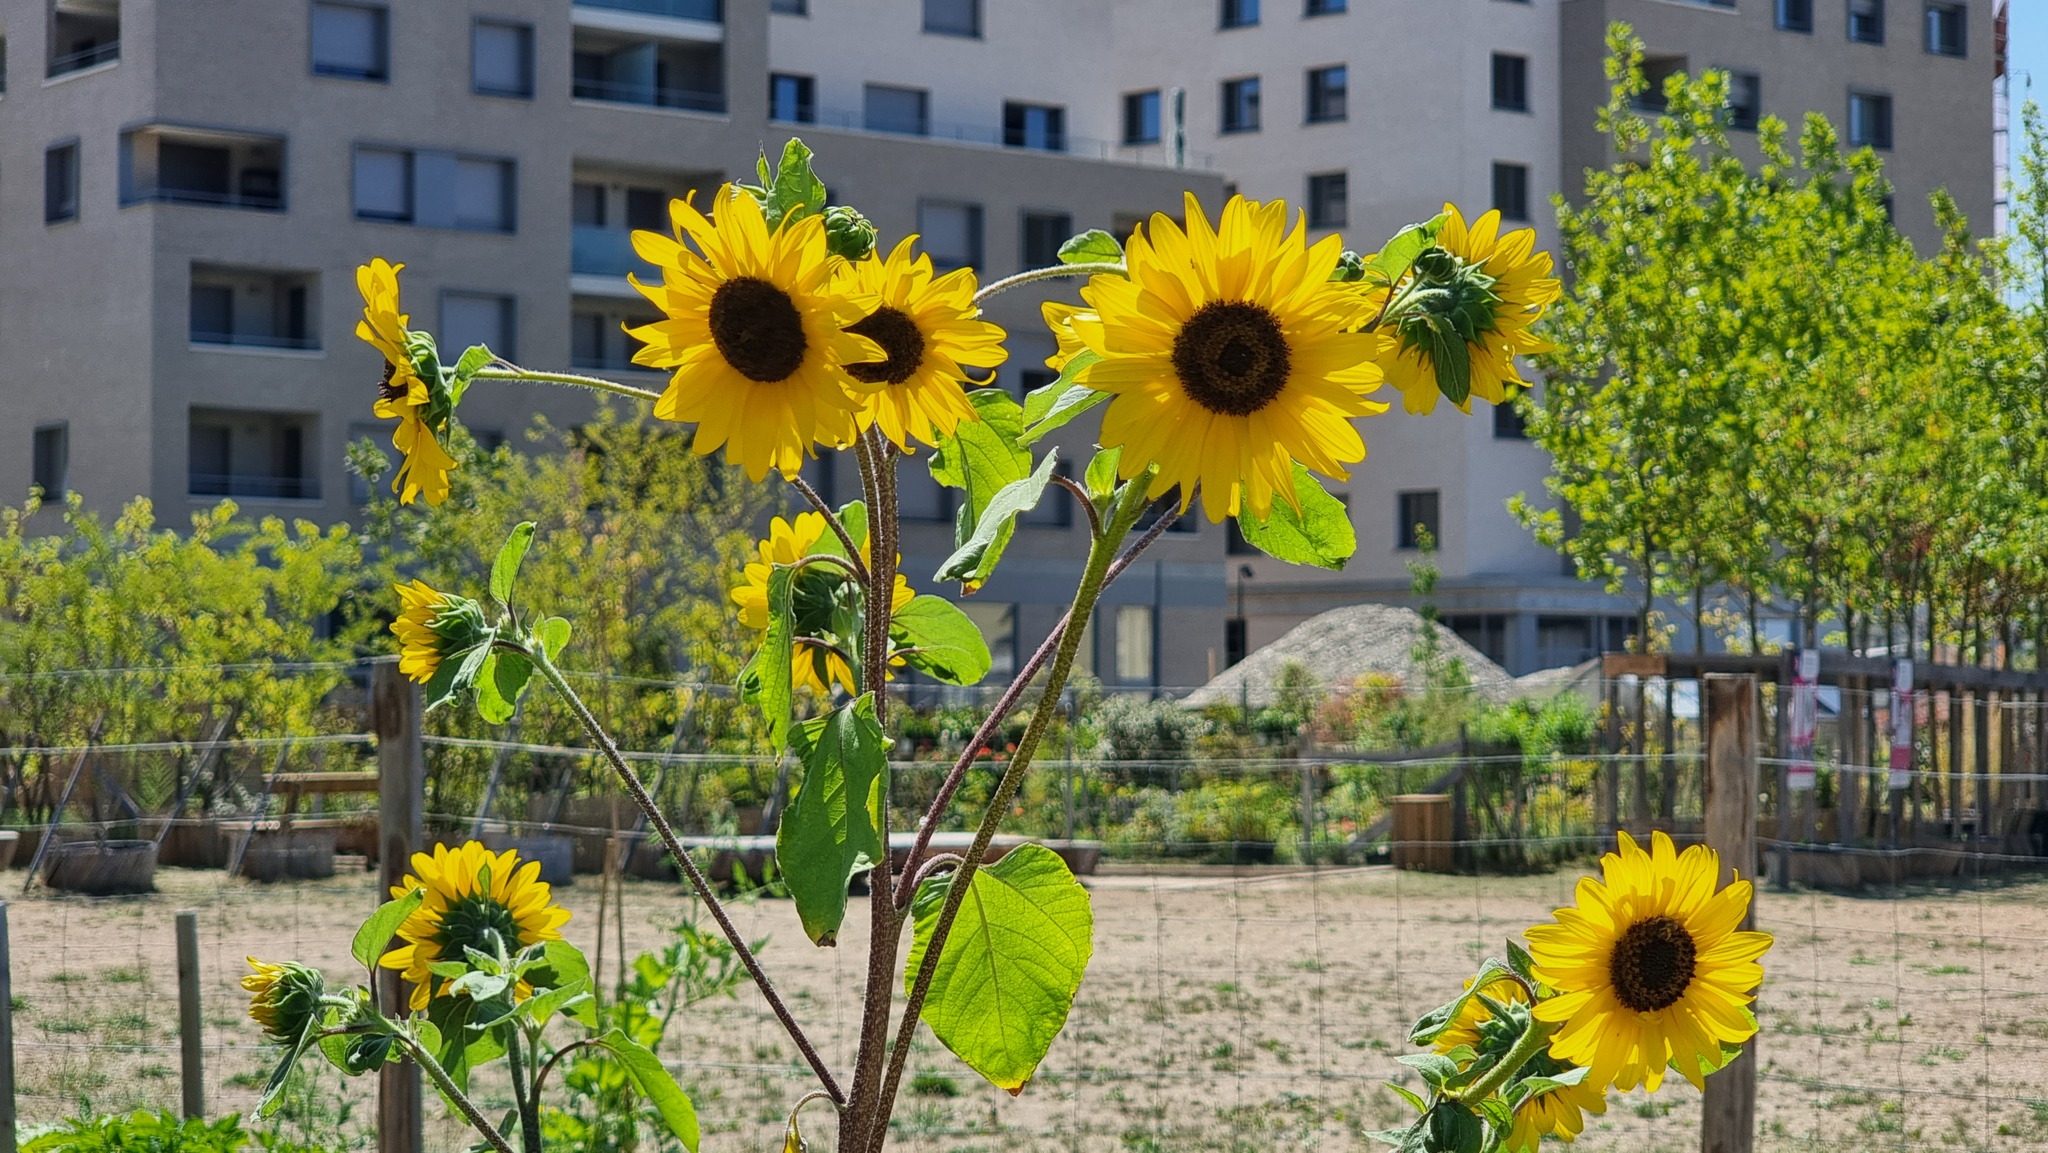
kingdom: Plantae
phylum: Tracheophyta
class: Magnoliopsida
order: Asterales
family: Asteraceae
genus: Helianthus
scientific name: Helianthus annuus
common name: Sunflower
